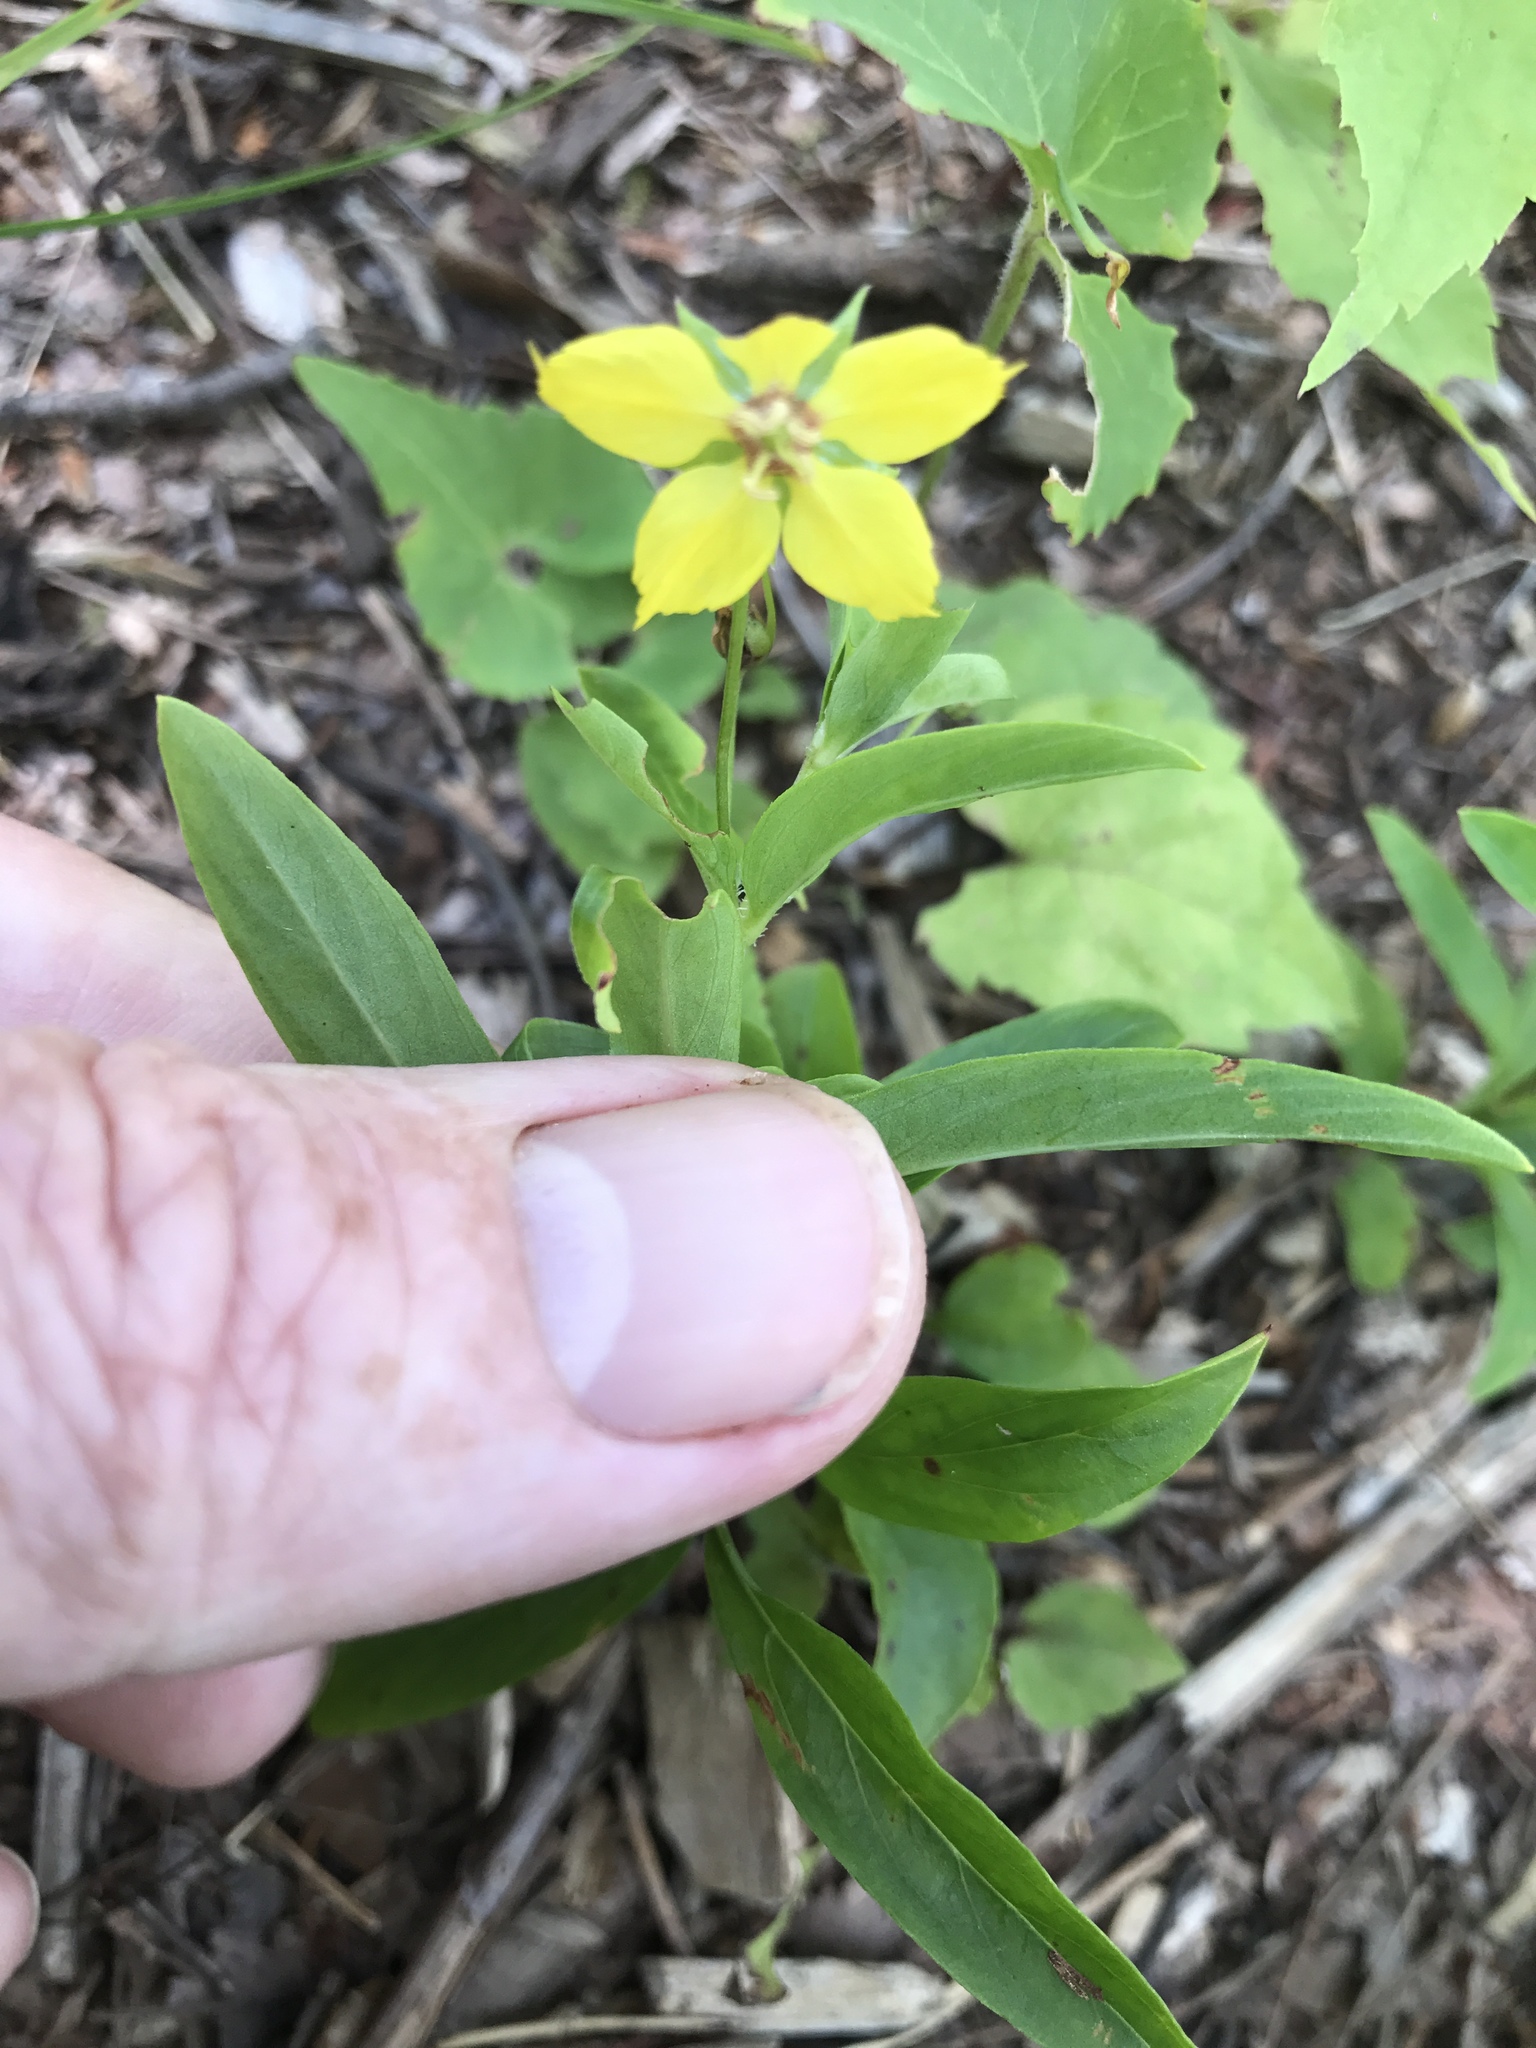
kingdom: Plantae
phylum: Tracheophyta
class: Magnoliopsida
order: Ericales
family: Primulaceae
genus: Lysimachia
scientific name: Lysimachia lanceolata
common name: Lance-leaved loosestrife
